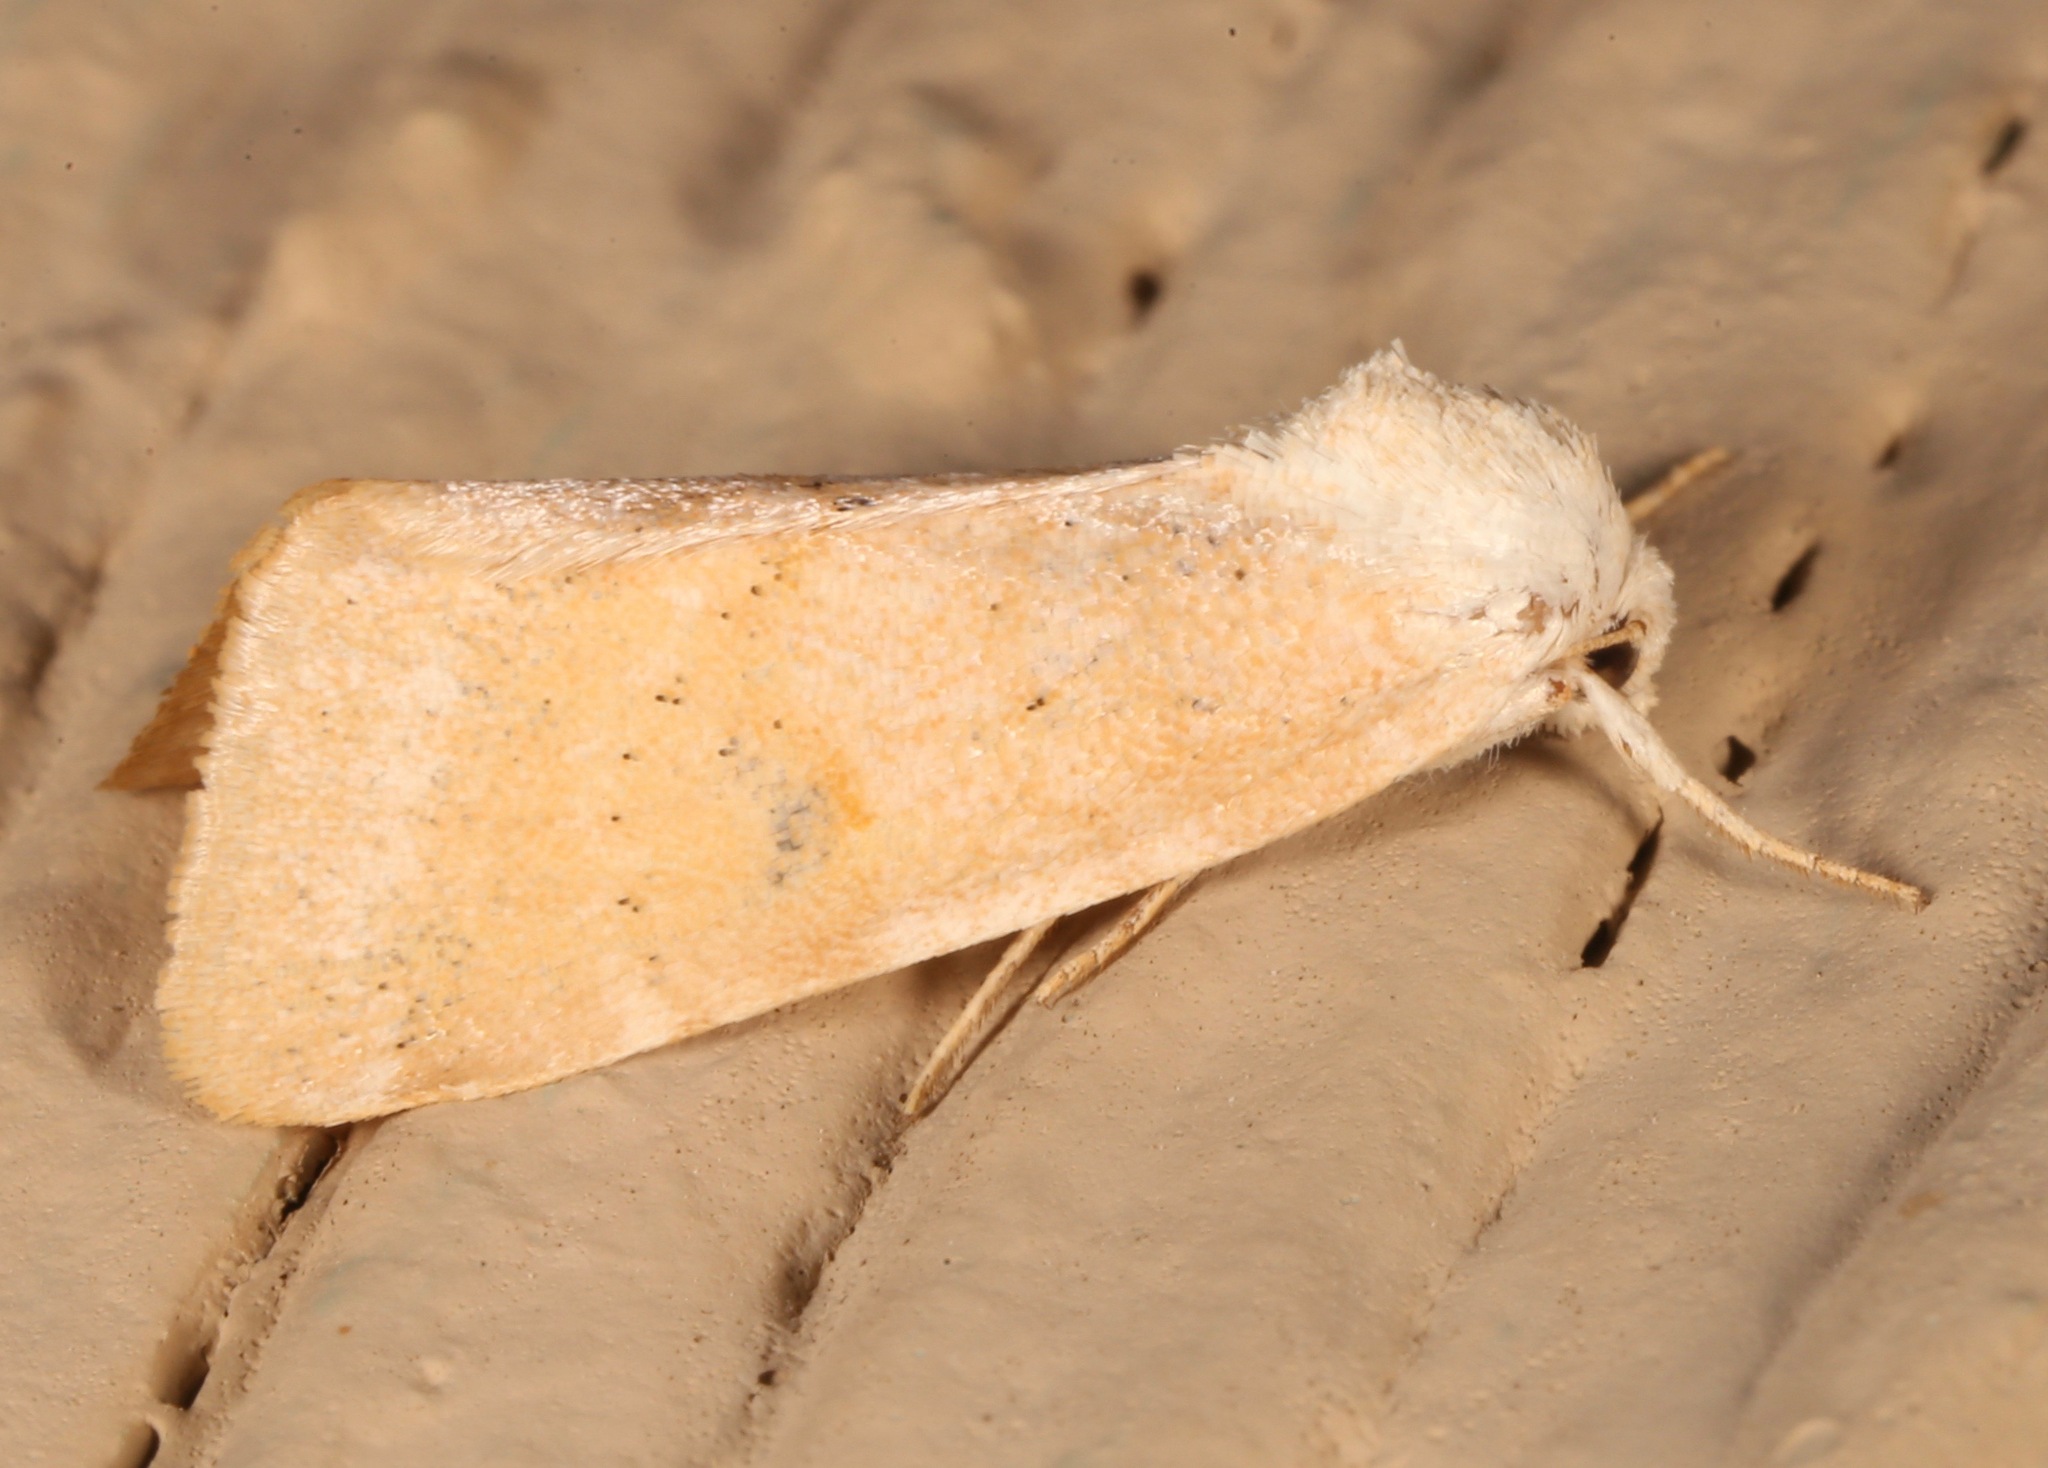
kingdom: Animalia
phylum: Arthropoda
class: Insecta
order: Lepidoptera
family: Noctuidae
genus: Trichocosmia
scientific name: Trichocosmia inornata
